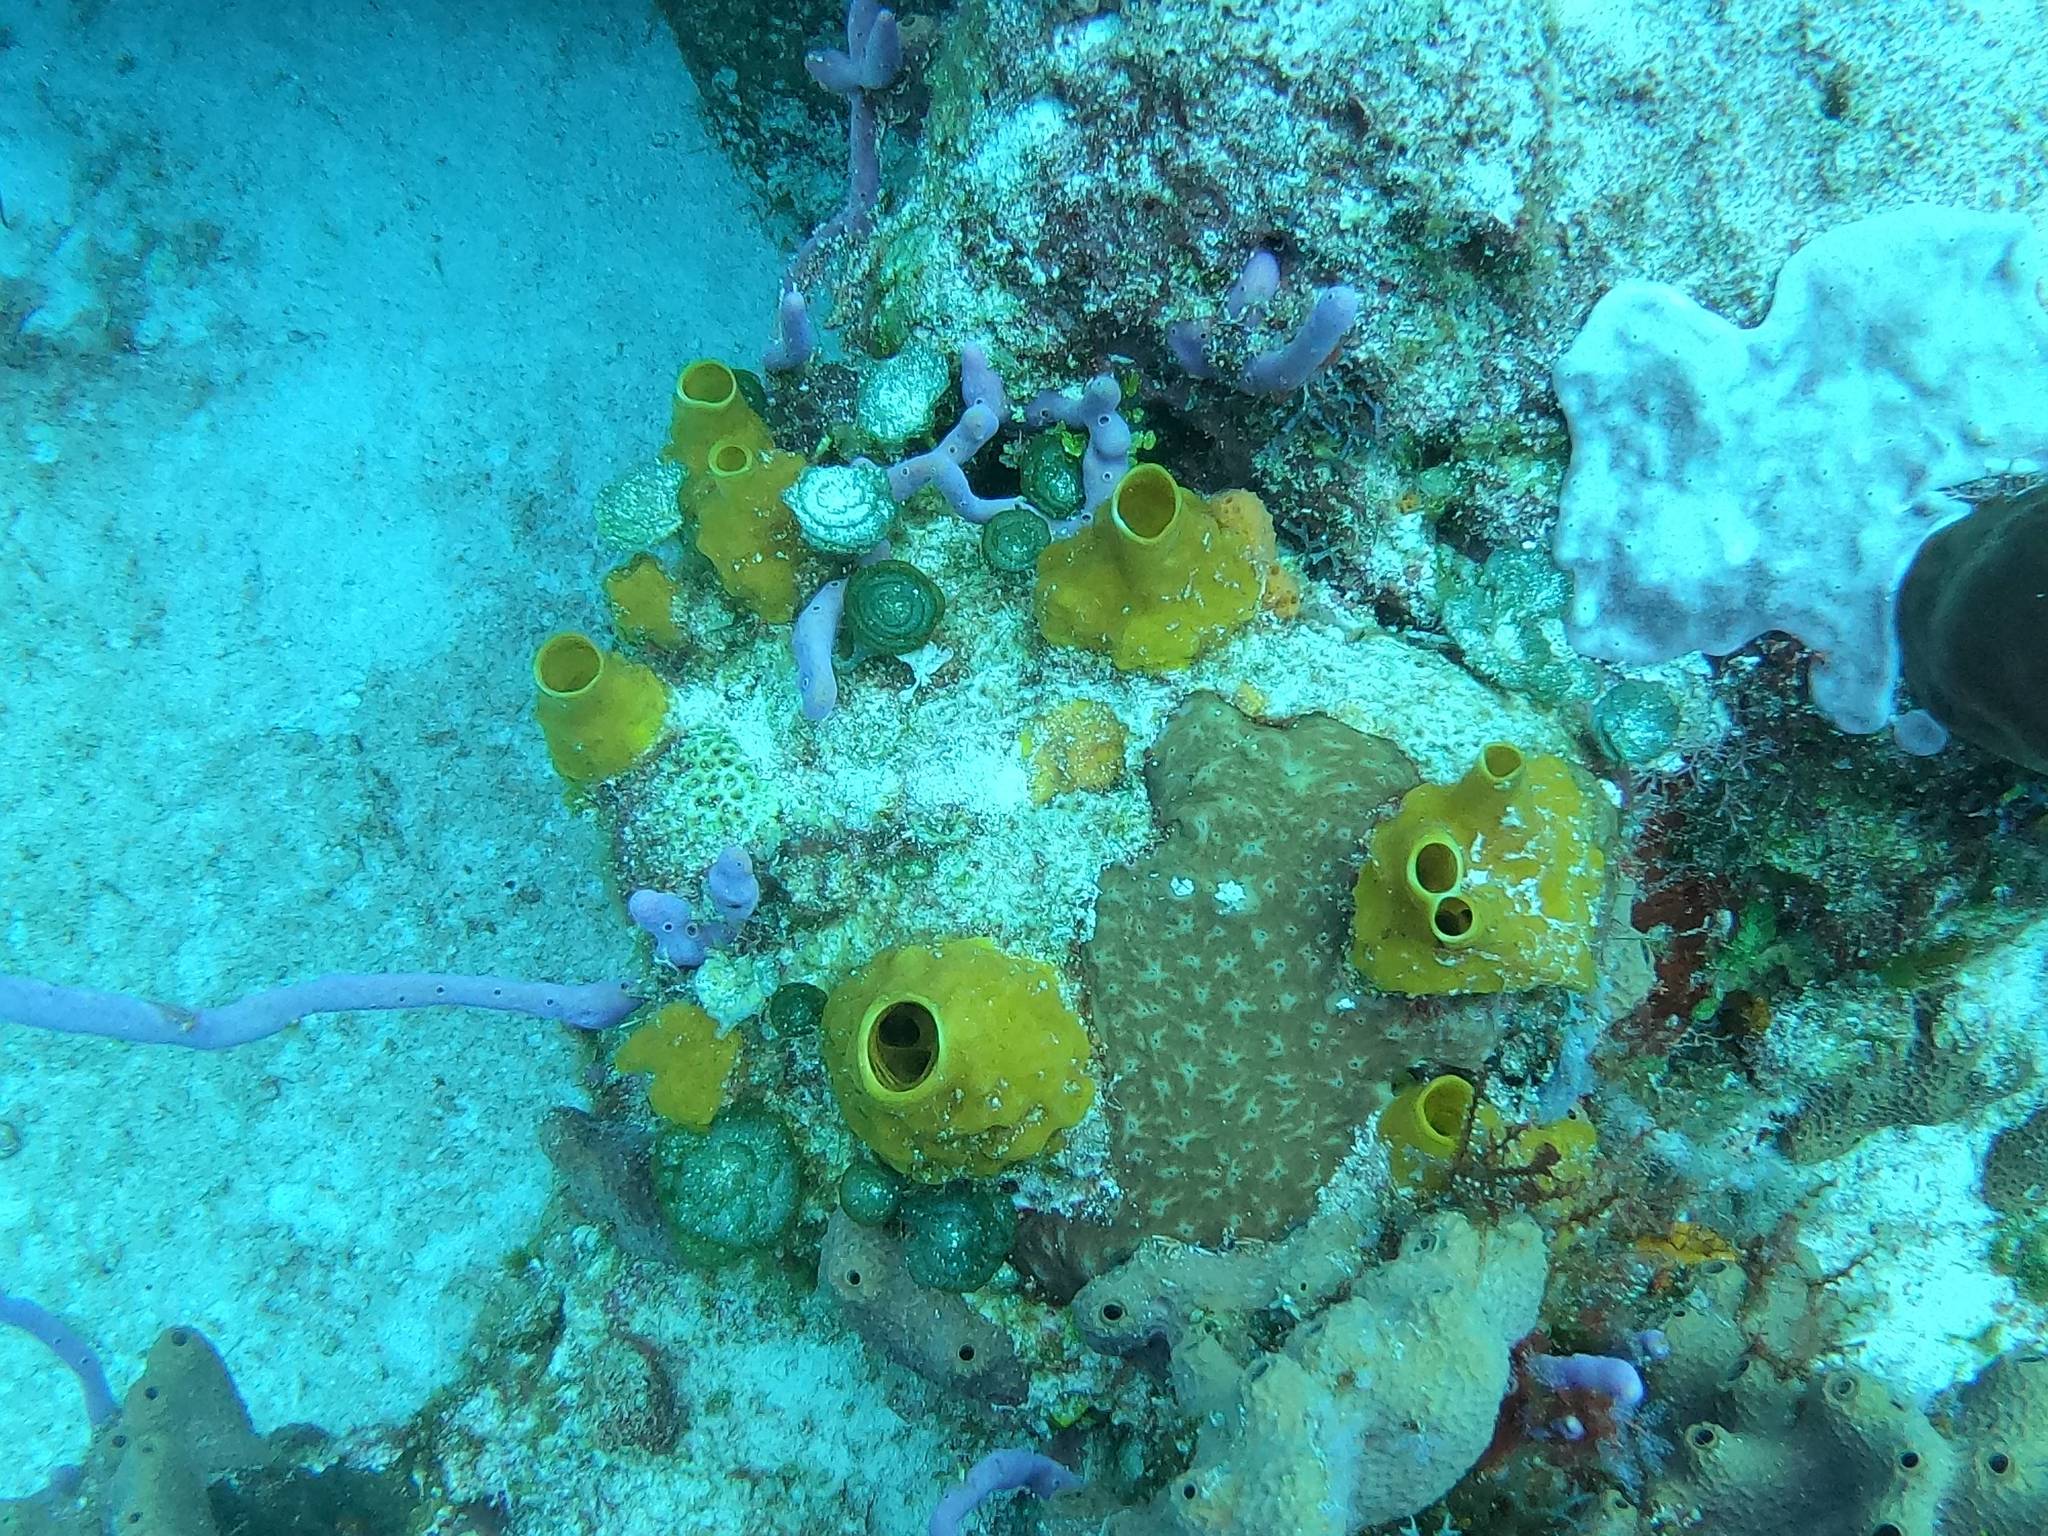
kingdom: Animalia
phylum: Porifera
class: Demospongiae
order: Haplosclerida
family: Phloeodictyidae
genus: Siphonodictyon
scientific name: Siphonodictyon coralliphagum
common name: Coral-eating boring sponge
